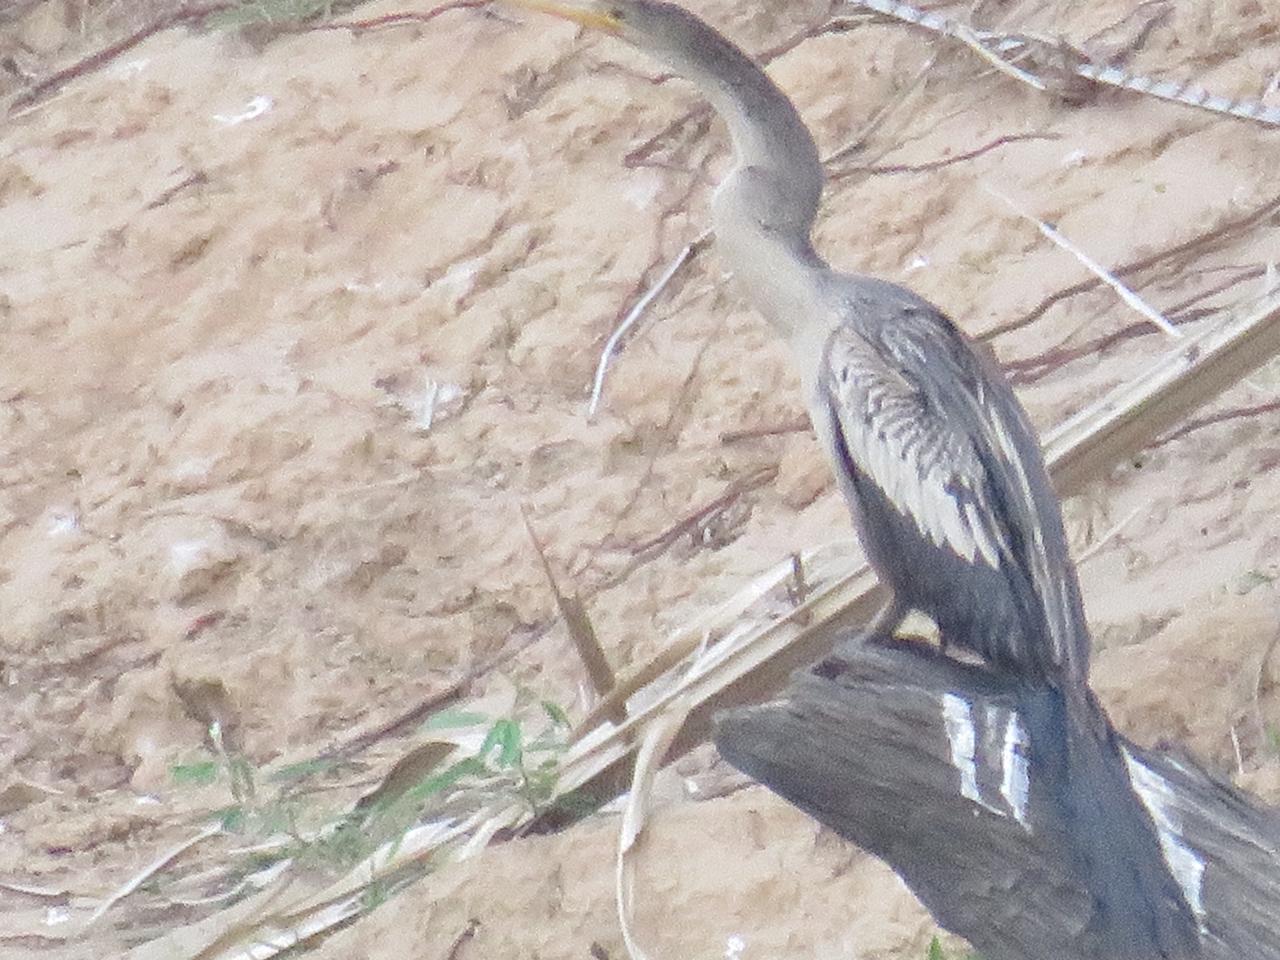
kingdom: Animalia
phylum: Chordata
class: Aves
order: Suliformes
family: Anhingidae
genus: Anhinga
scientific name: Anhinga anhinga
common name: Anhinga
